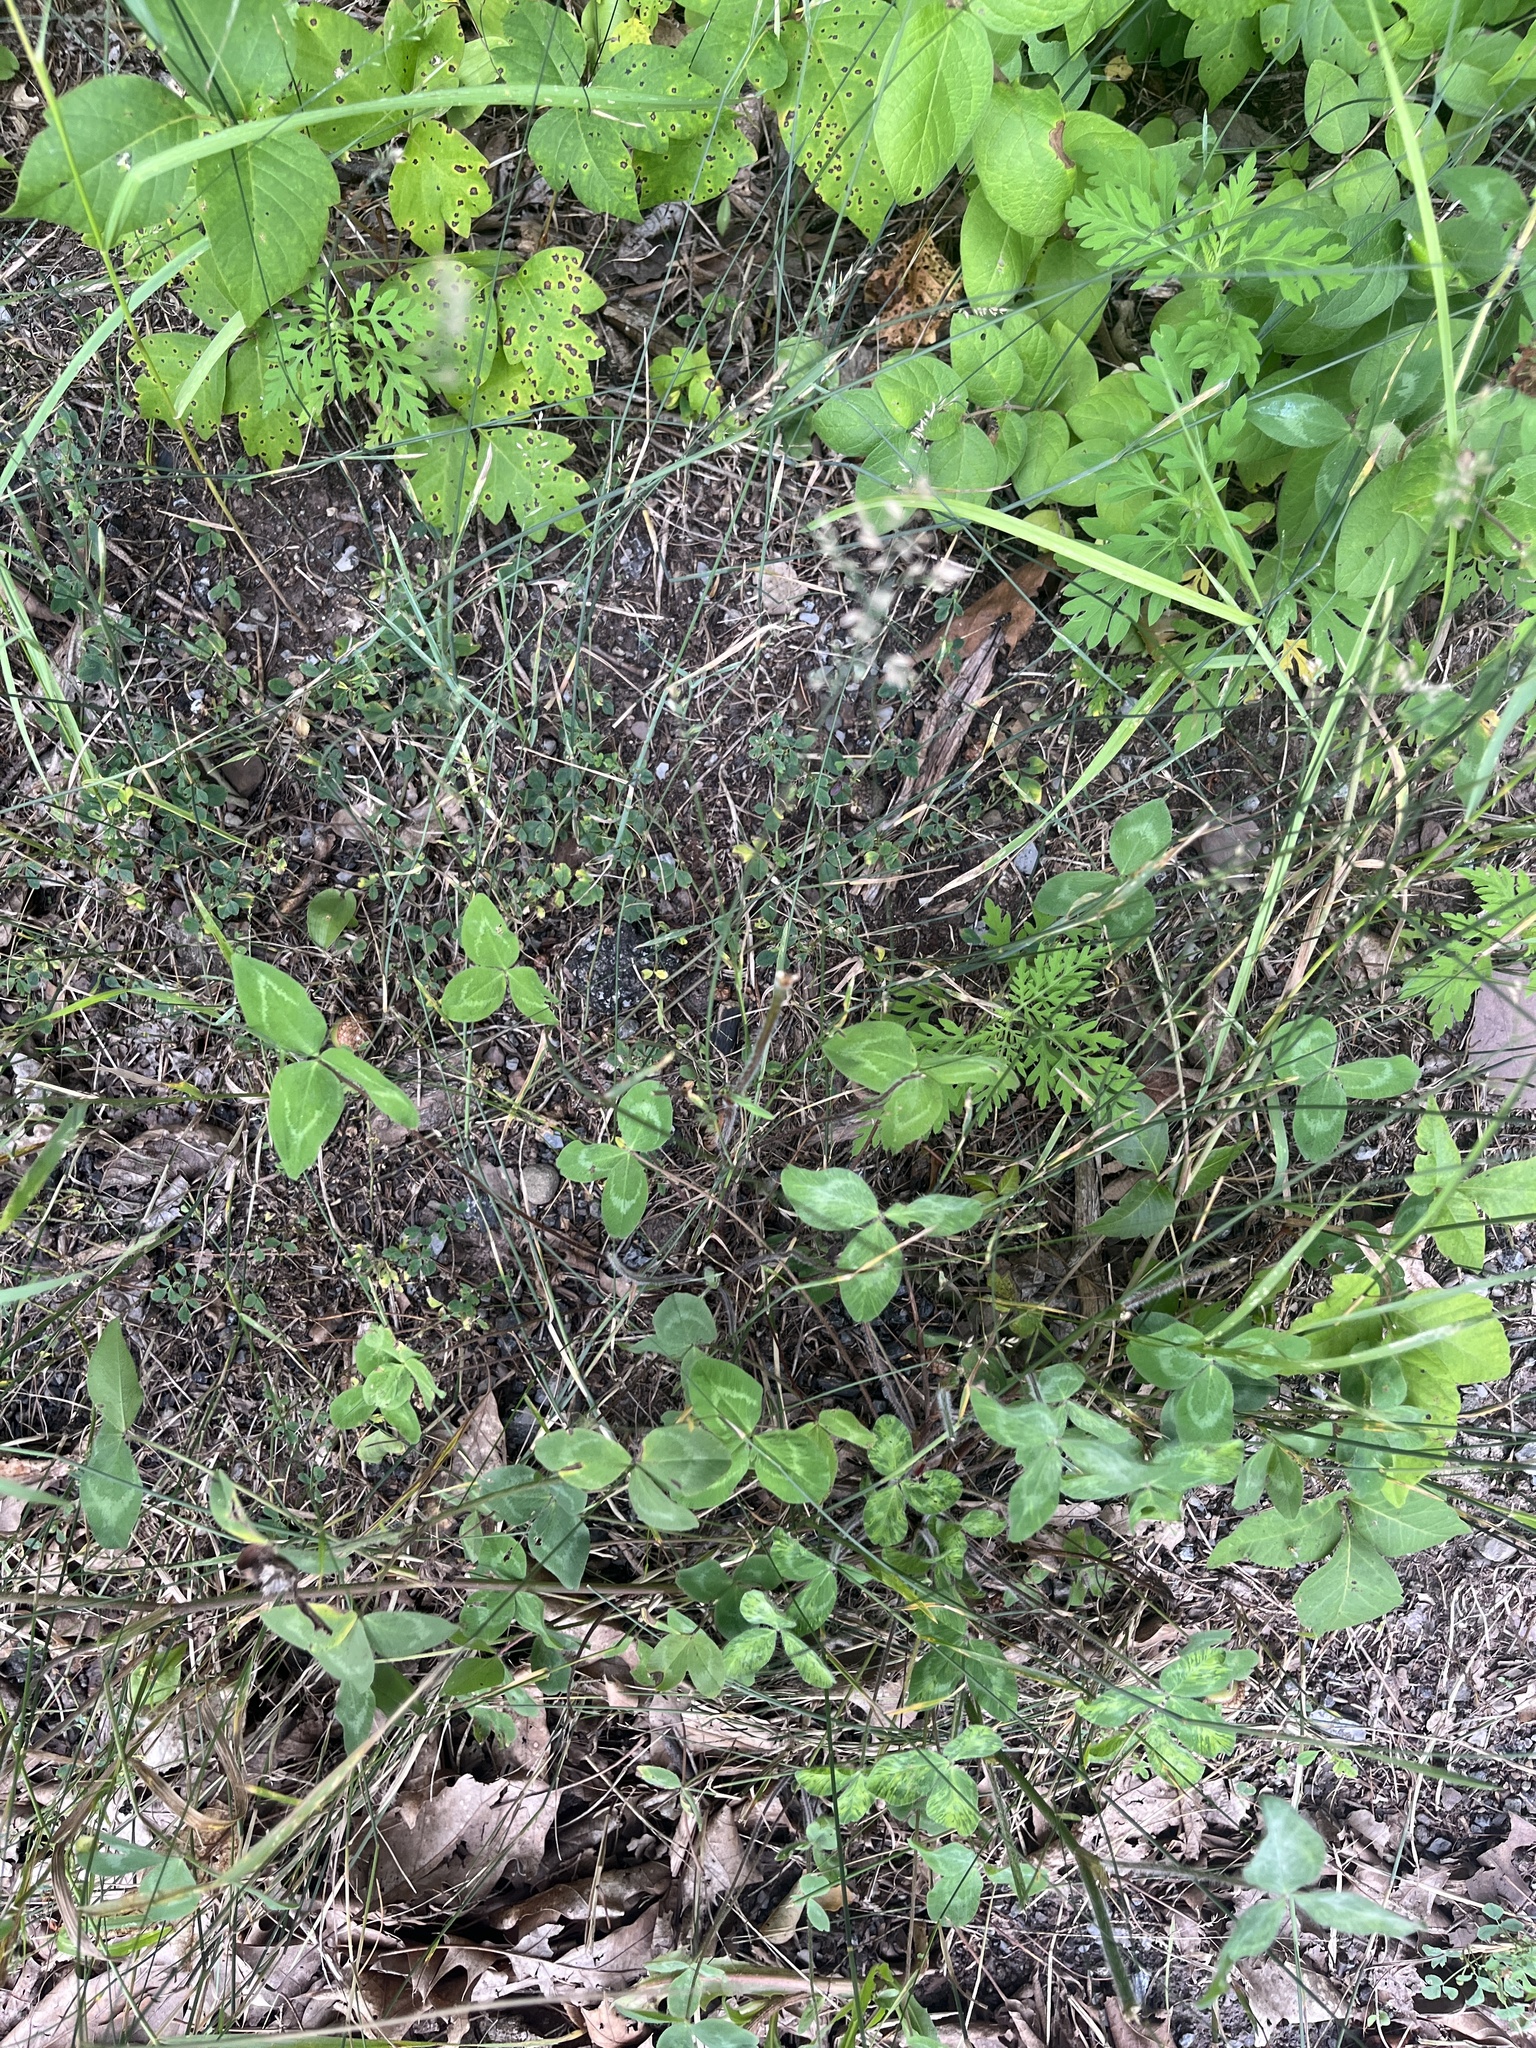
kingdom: Plantae
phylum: Tracheophyta
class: Liliopsida
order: Poales
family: Poaceae
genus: Poa
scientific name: Poa compressa
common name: Canada bluegrass
